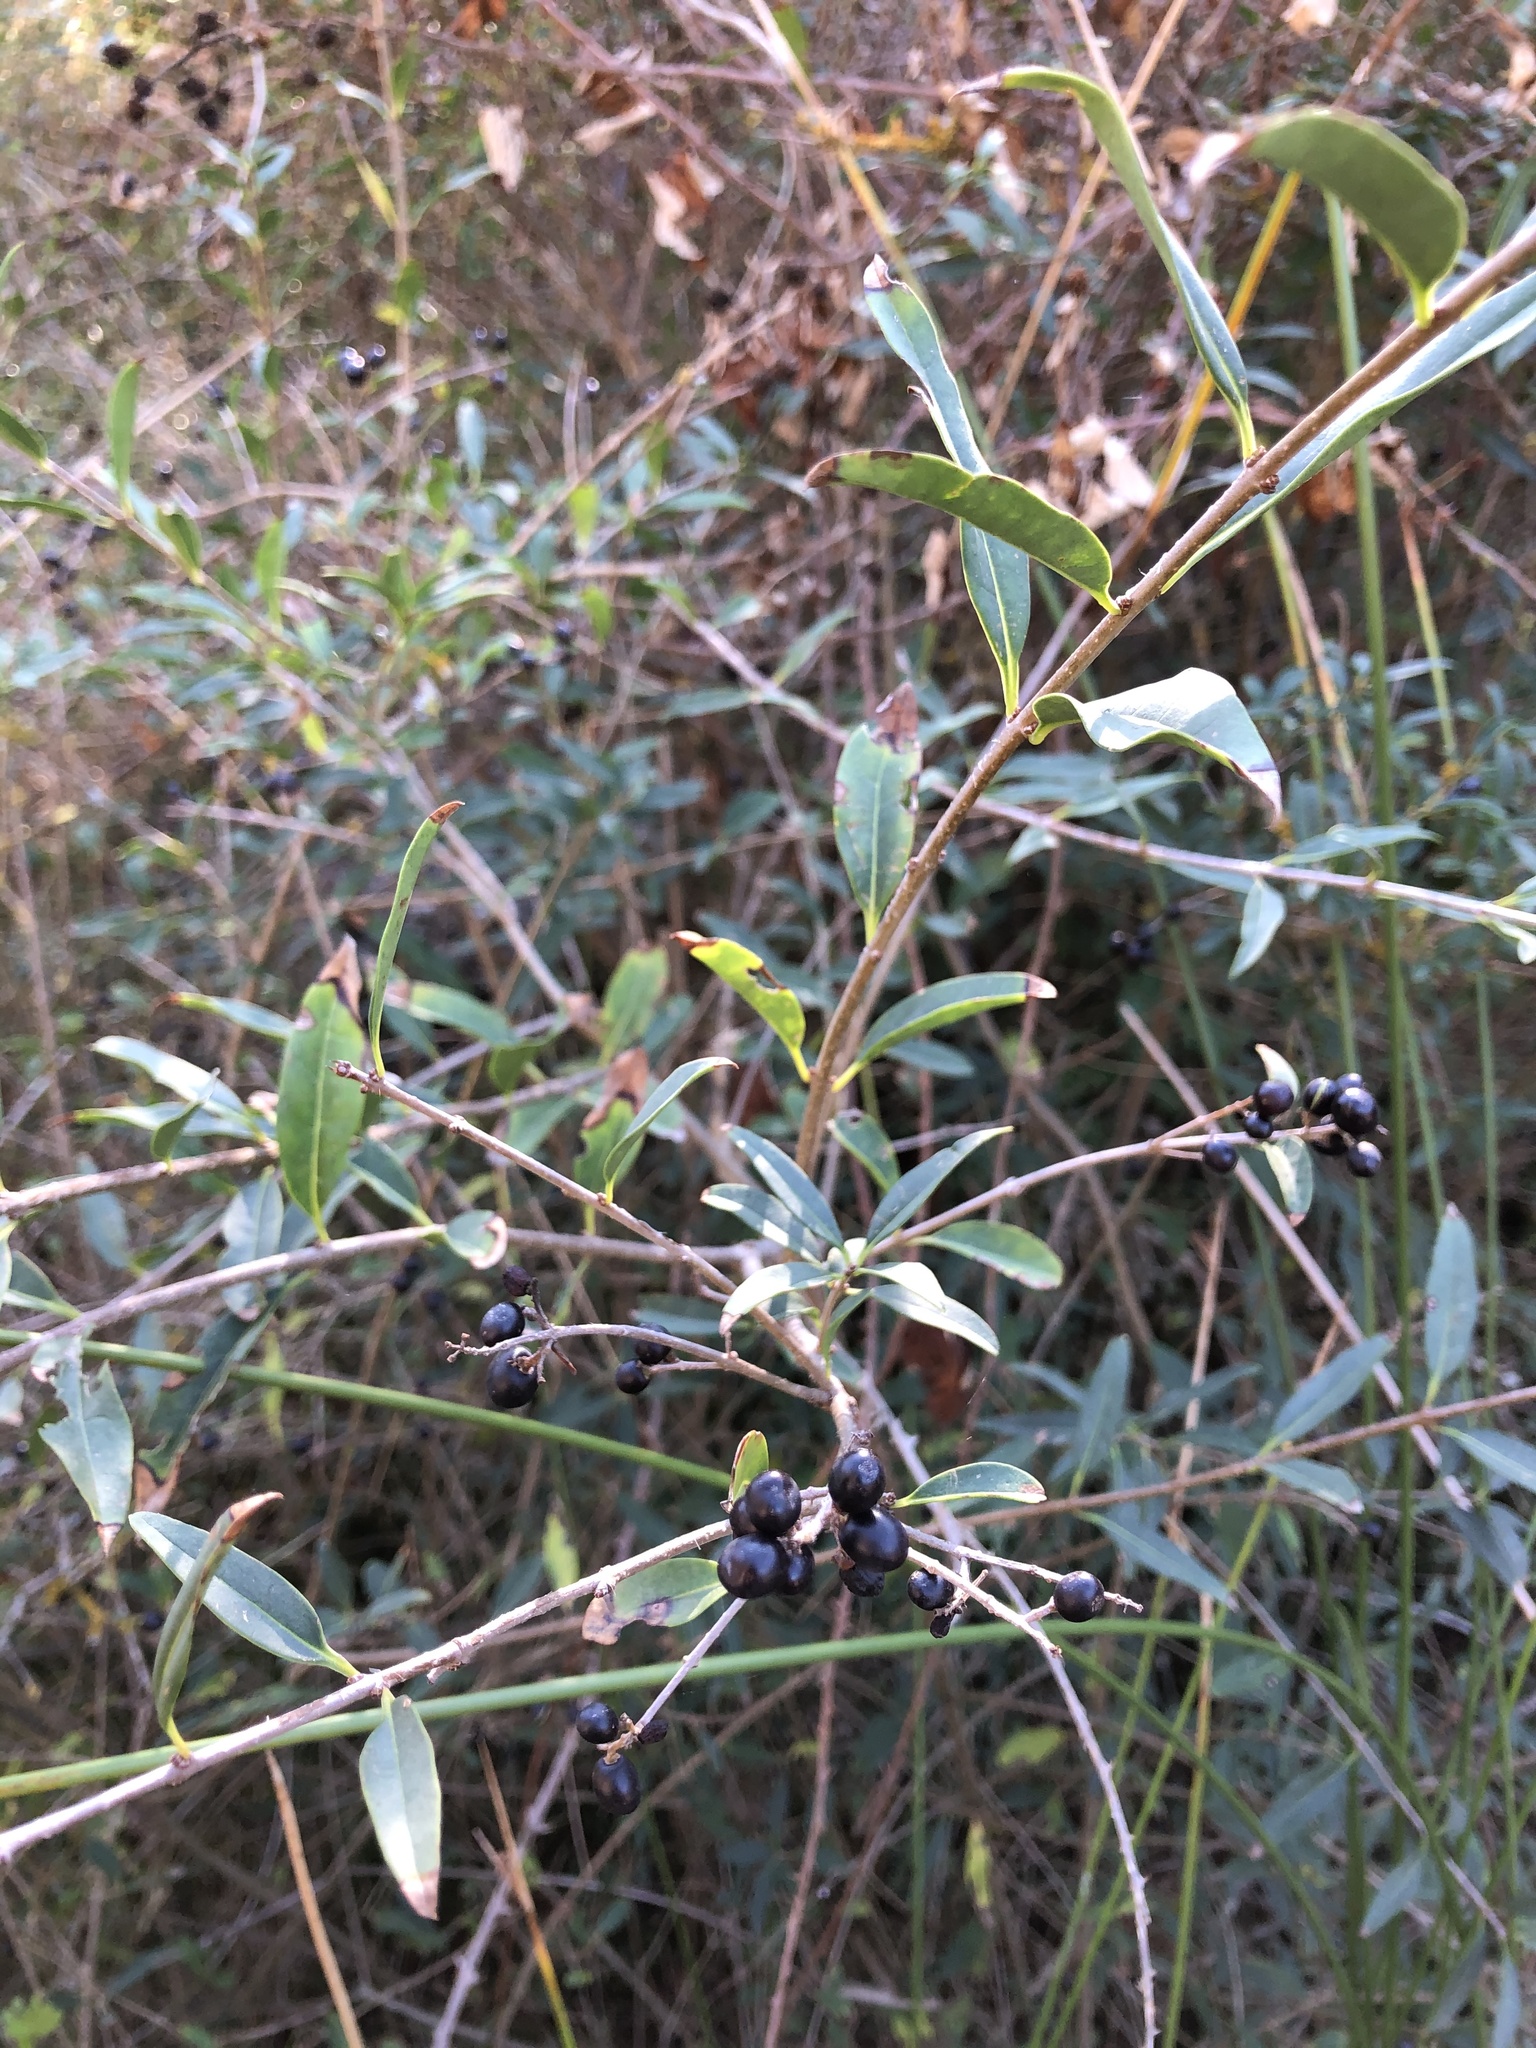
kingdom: Plantae
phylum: Tracheophyta
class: Magnoliopsida
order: Lamiales
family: Oleaceae
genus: Ligustrum
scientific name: Ligustrum vulgare
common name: Wild privet
